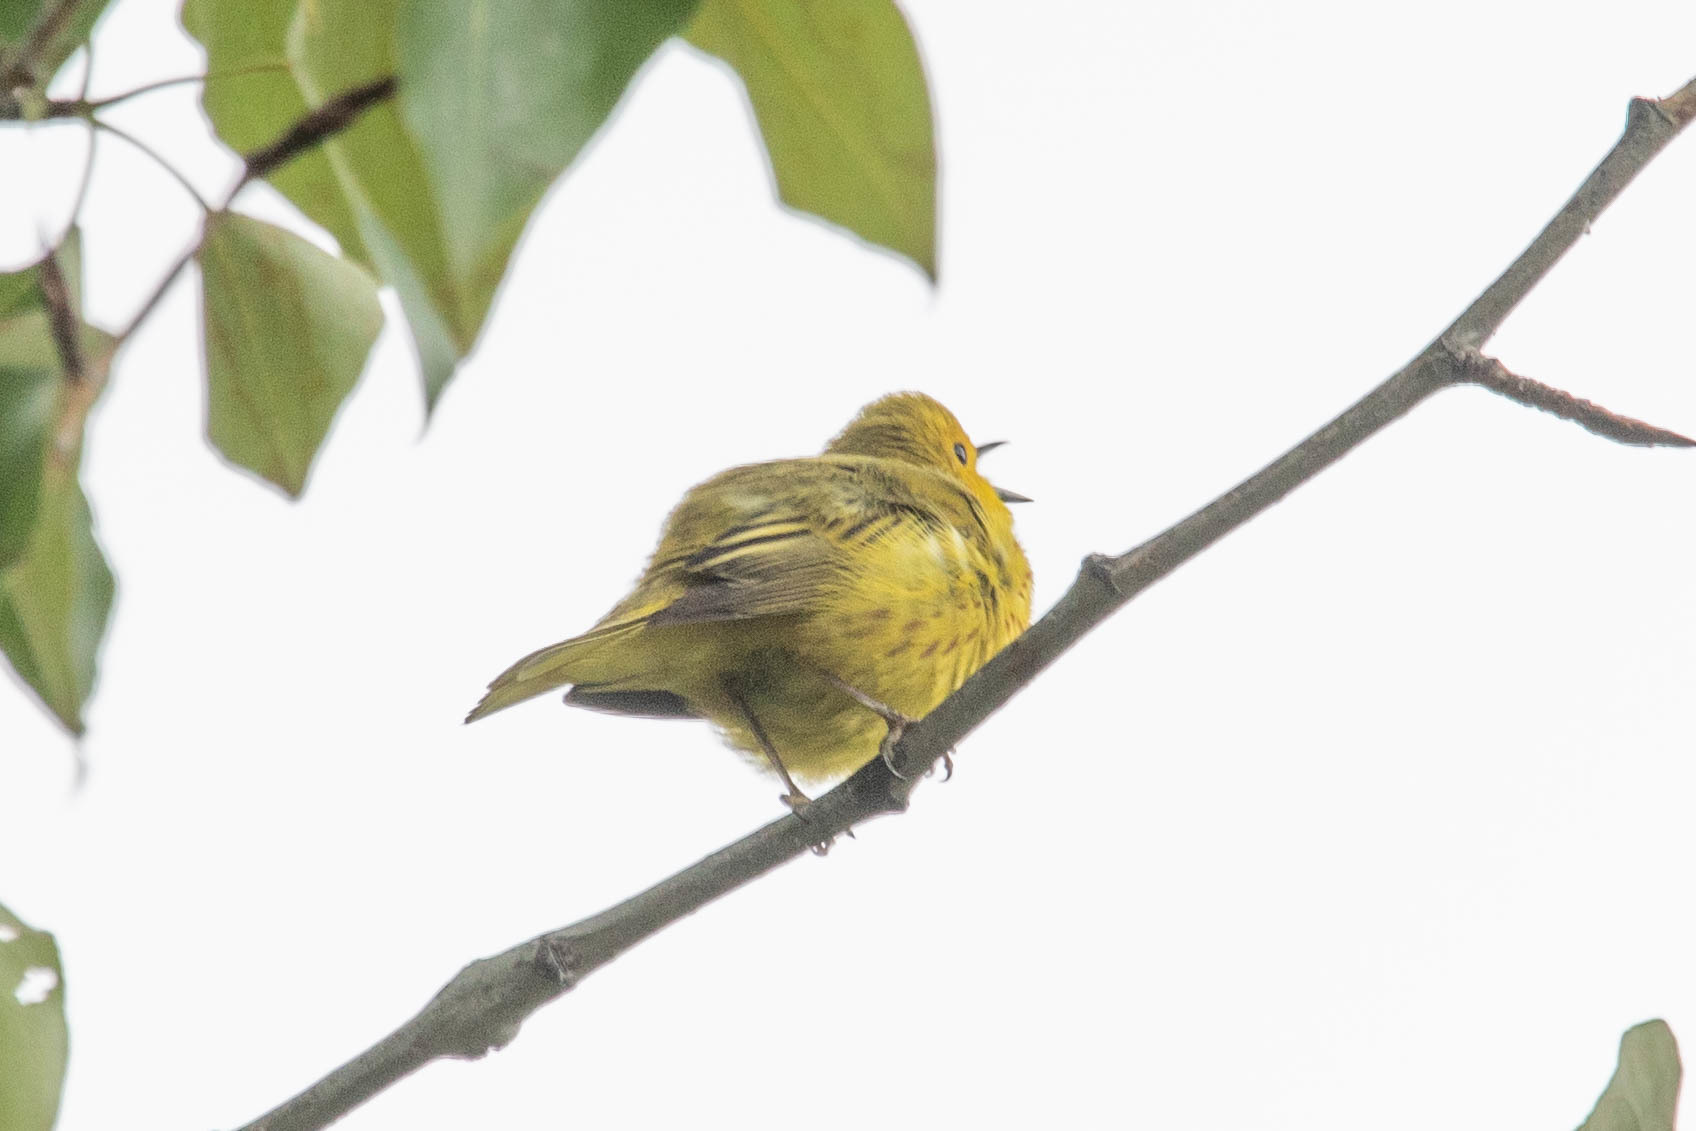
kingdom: Animalia
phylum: Chordata
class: Aves
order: Passeriformes
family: Parulidae
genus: Setophaga
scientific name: Setophaga petechia
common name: Yellow warbler
